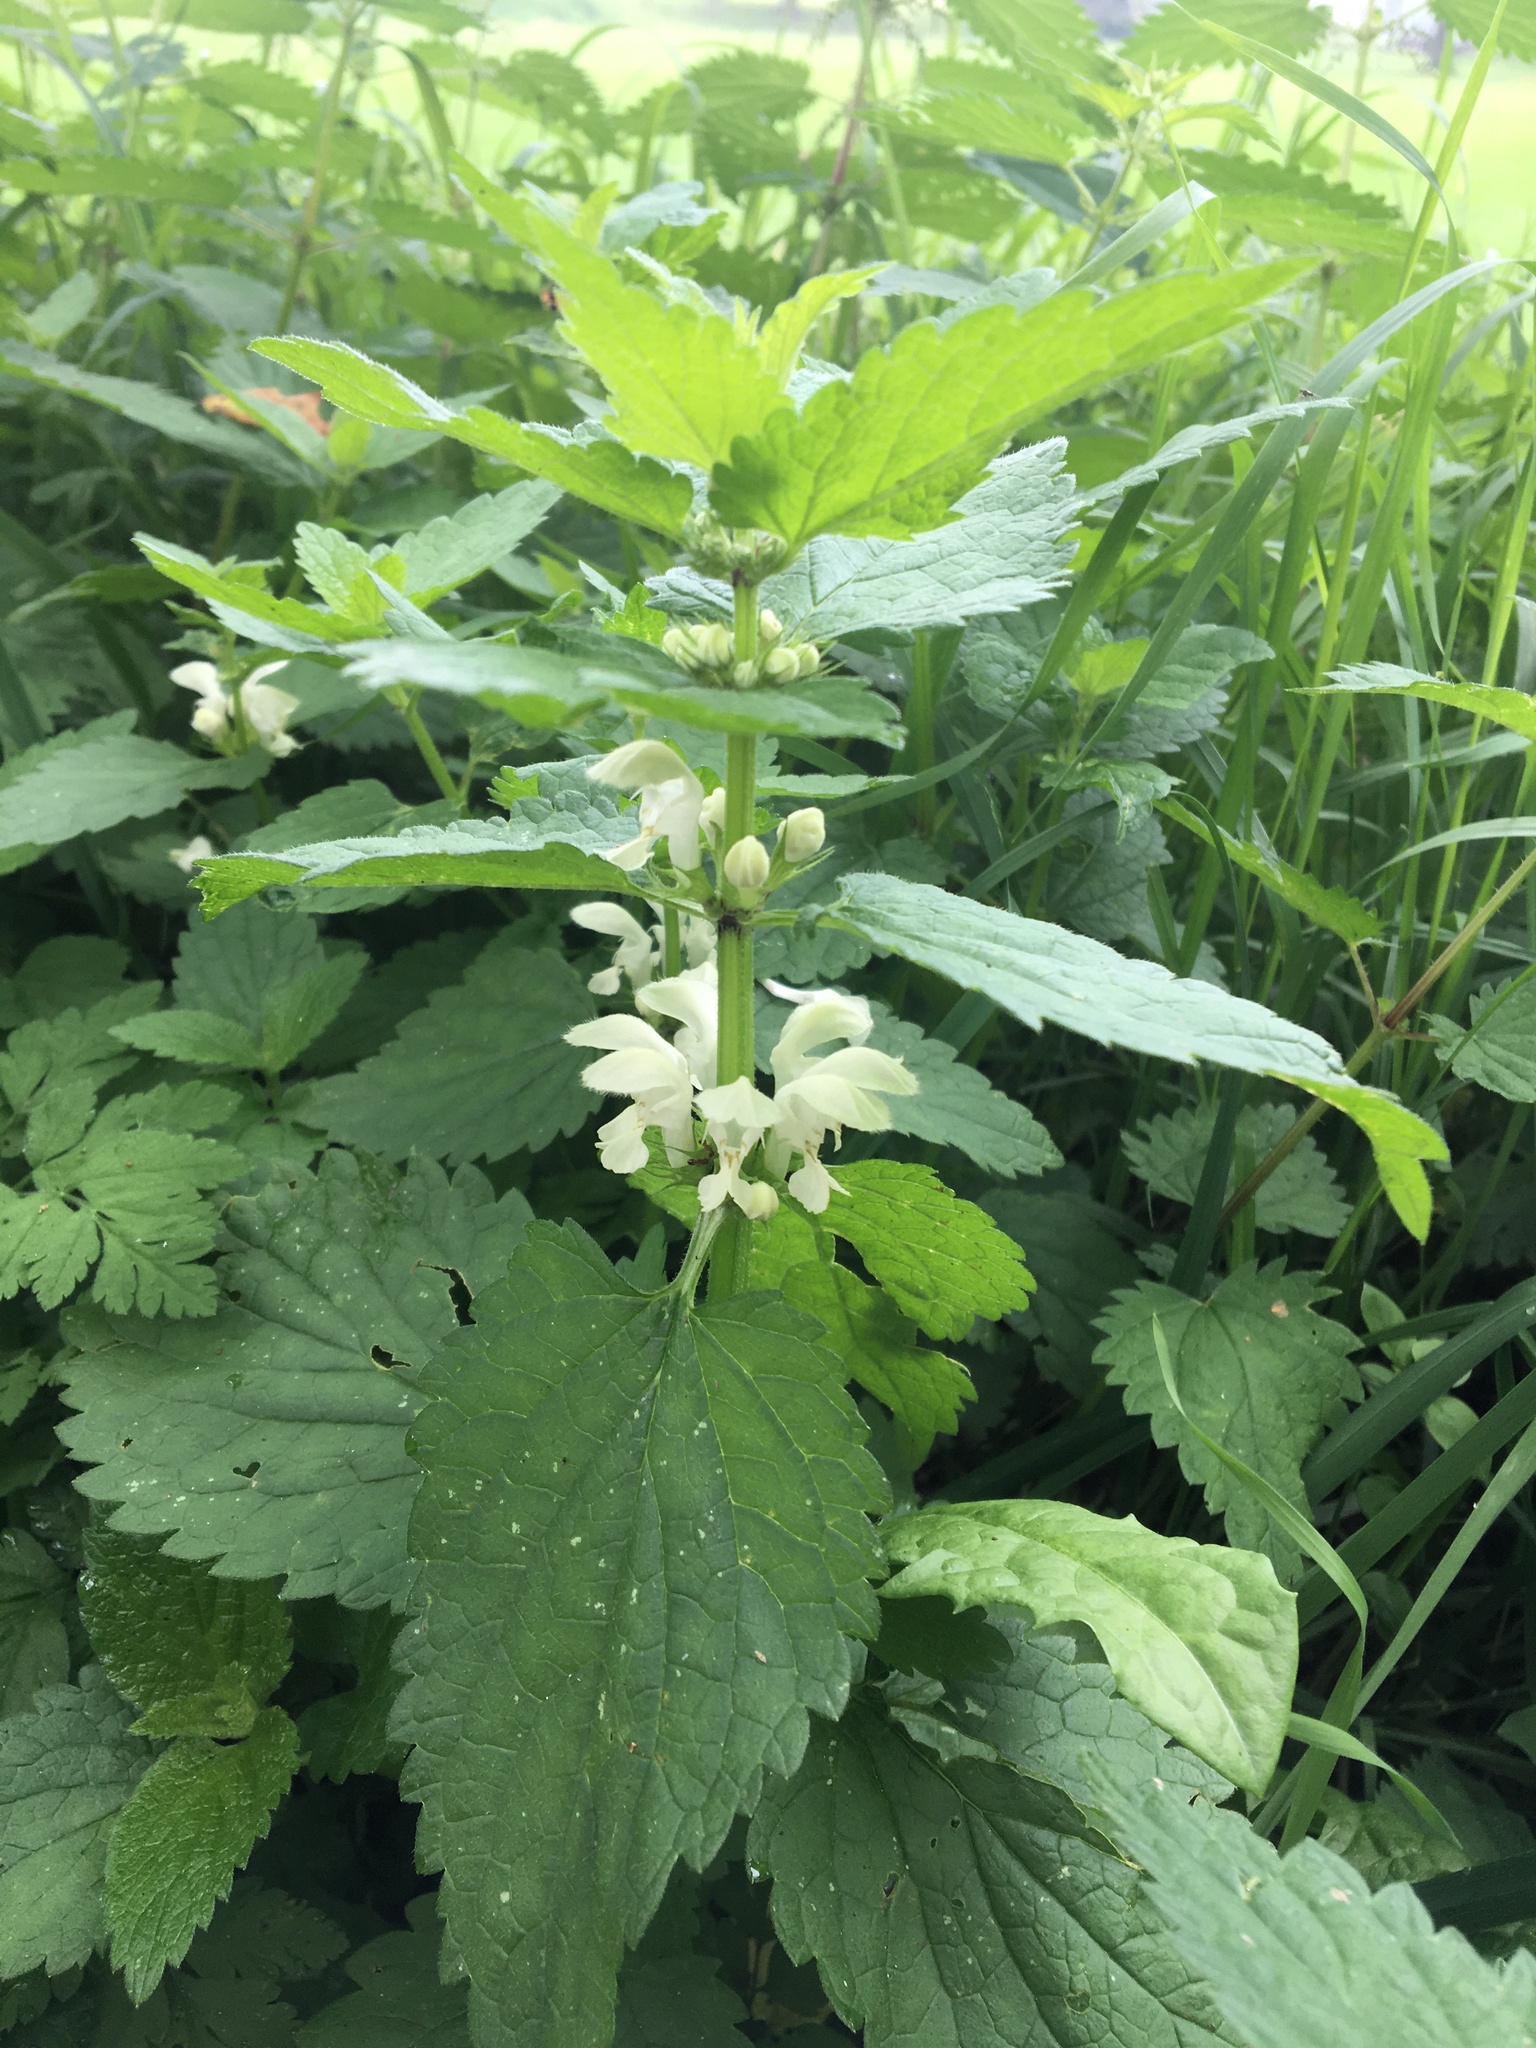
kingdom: Plantae
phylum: Tracheophyta
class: Magnoliopsida
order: Lamiales
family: Lamiaceae
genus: Lamium
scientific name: Lamium album
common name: White dead-nettle
